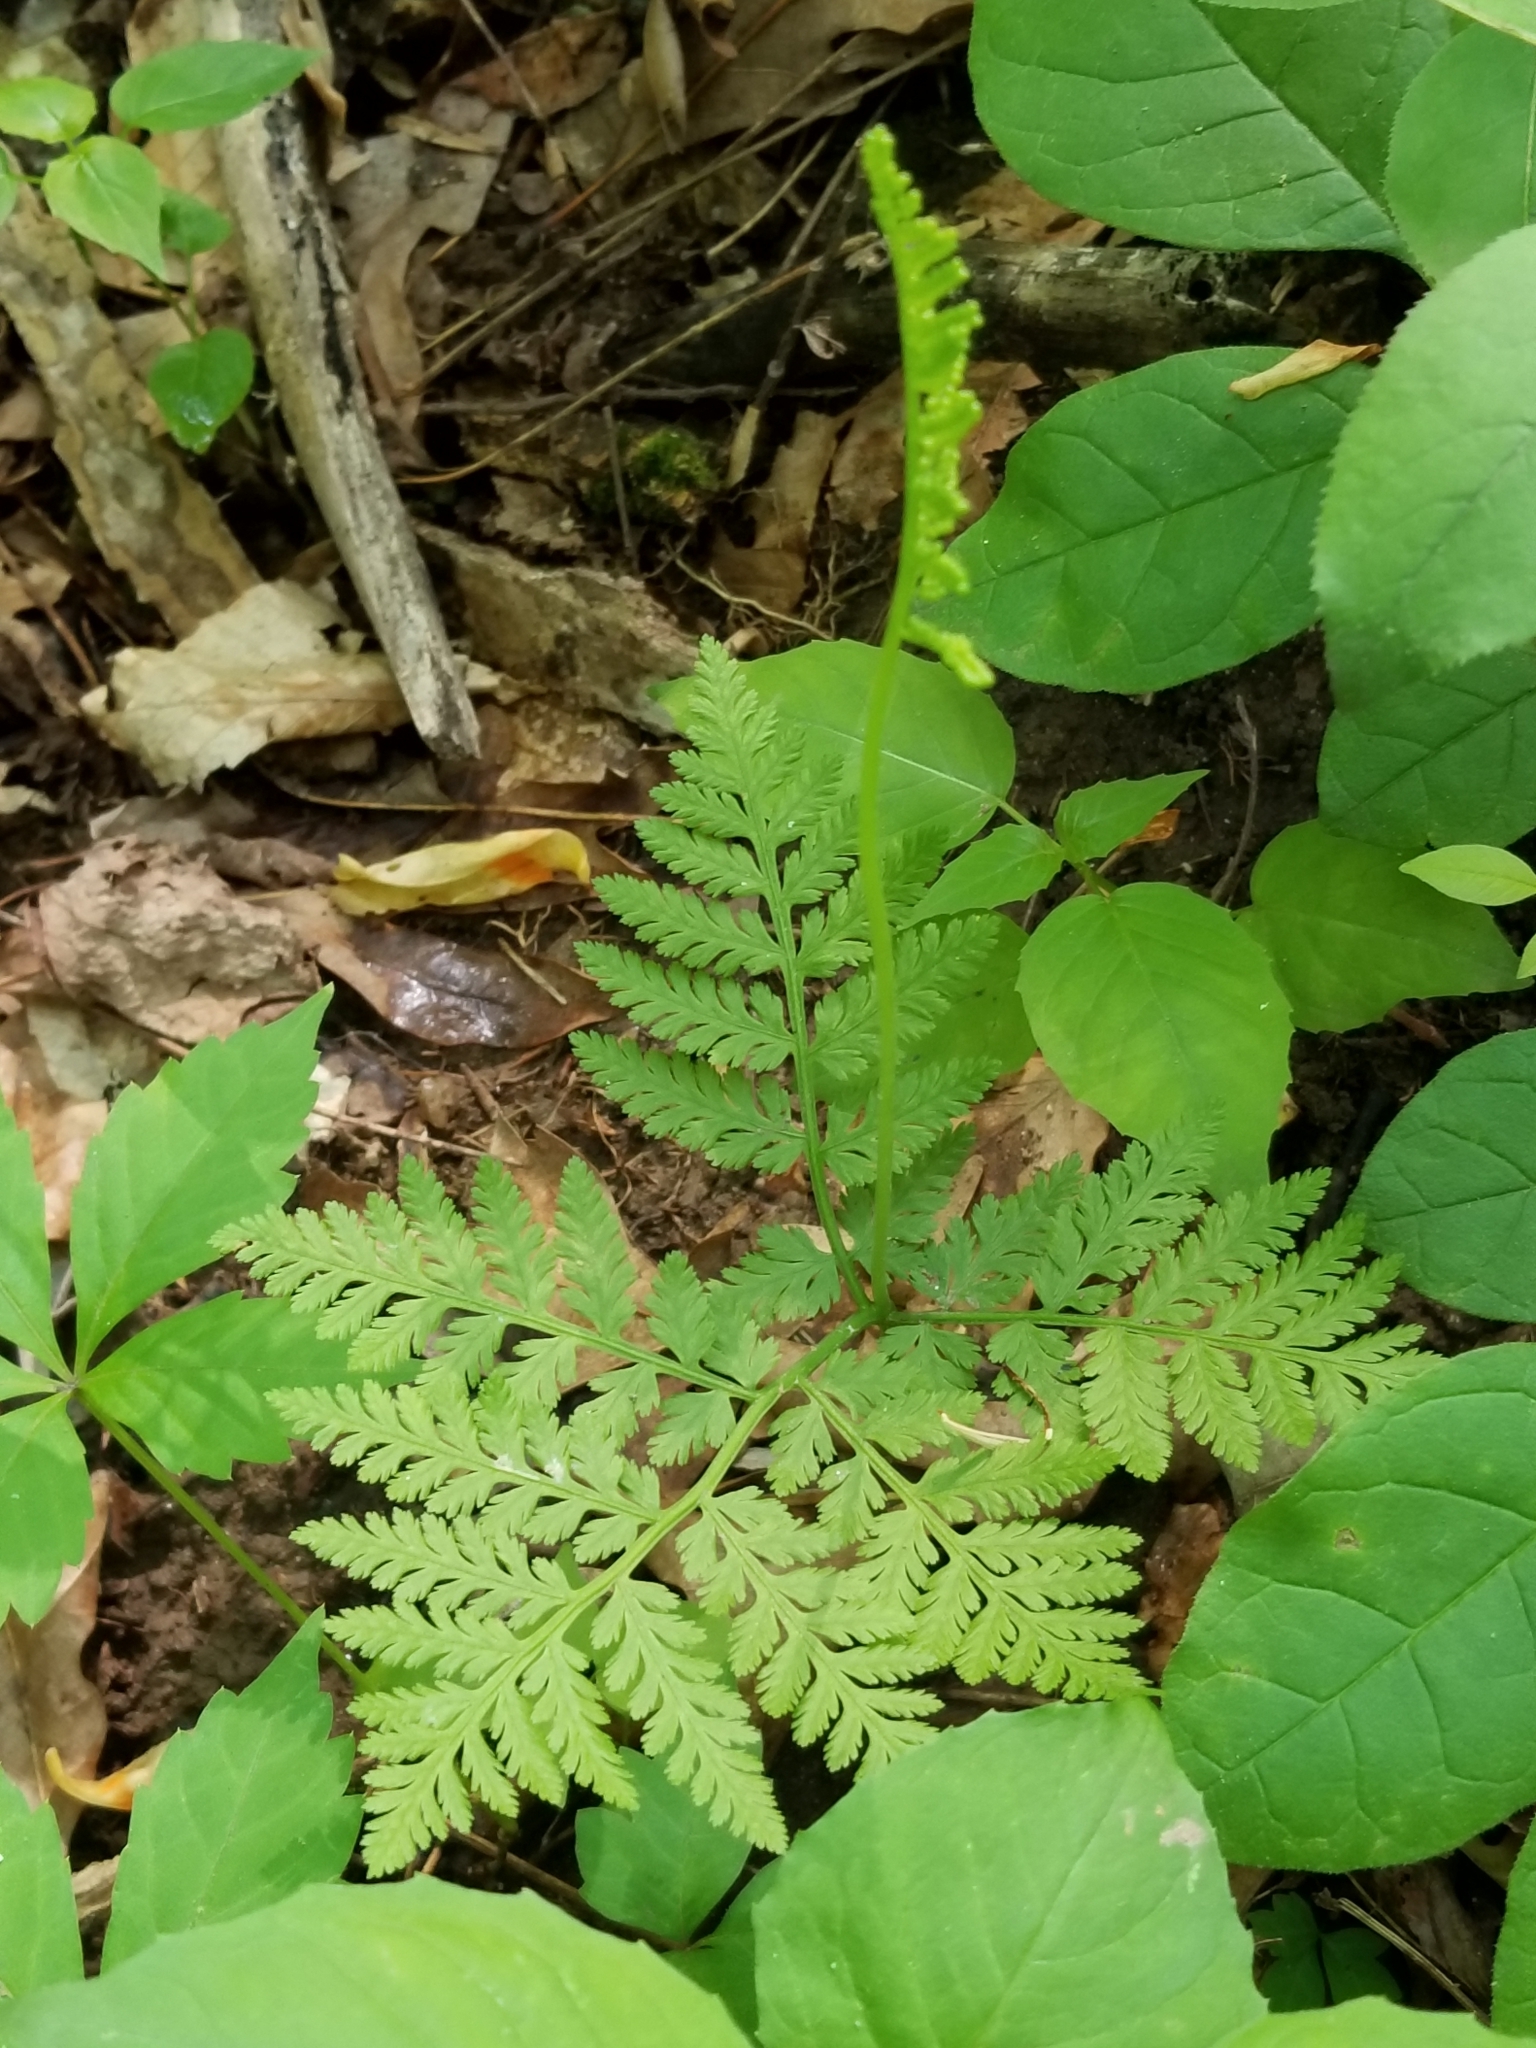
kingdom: Plantae
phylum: Tracheophyta
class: Polypodiopsida
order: Ophioglossales
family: Ophioglossaceae
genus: Botrypus
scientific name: Botrypus virginianus
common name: Common grapefern
